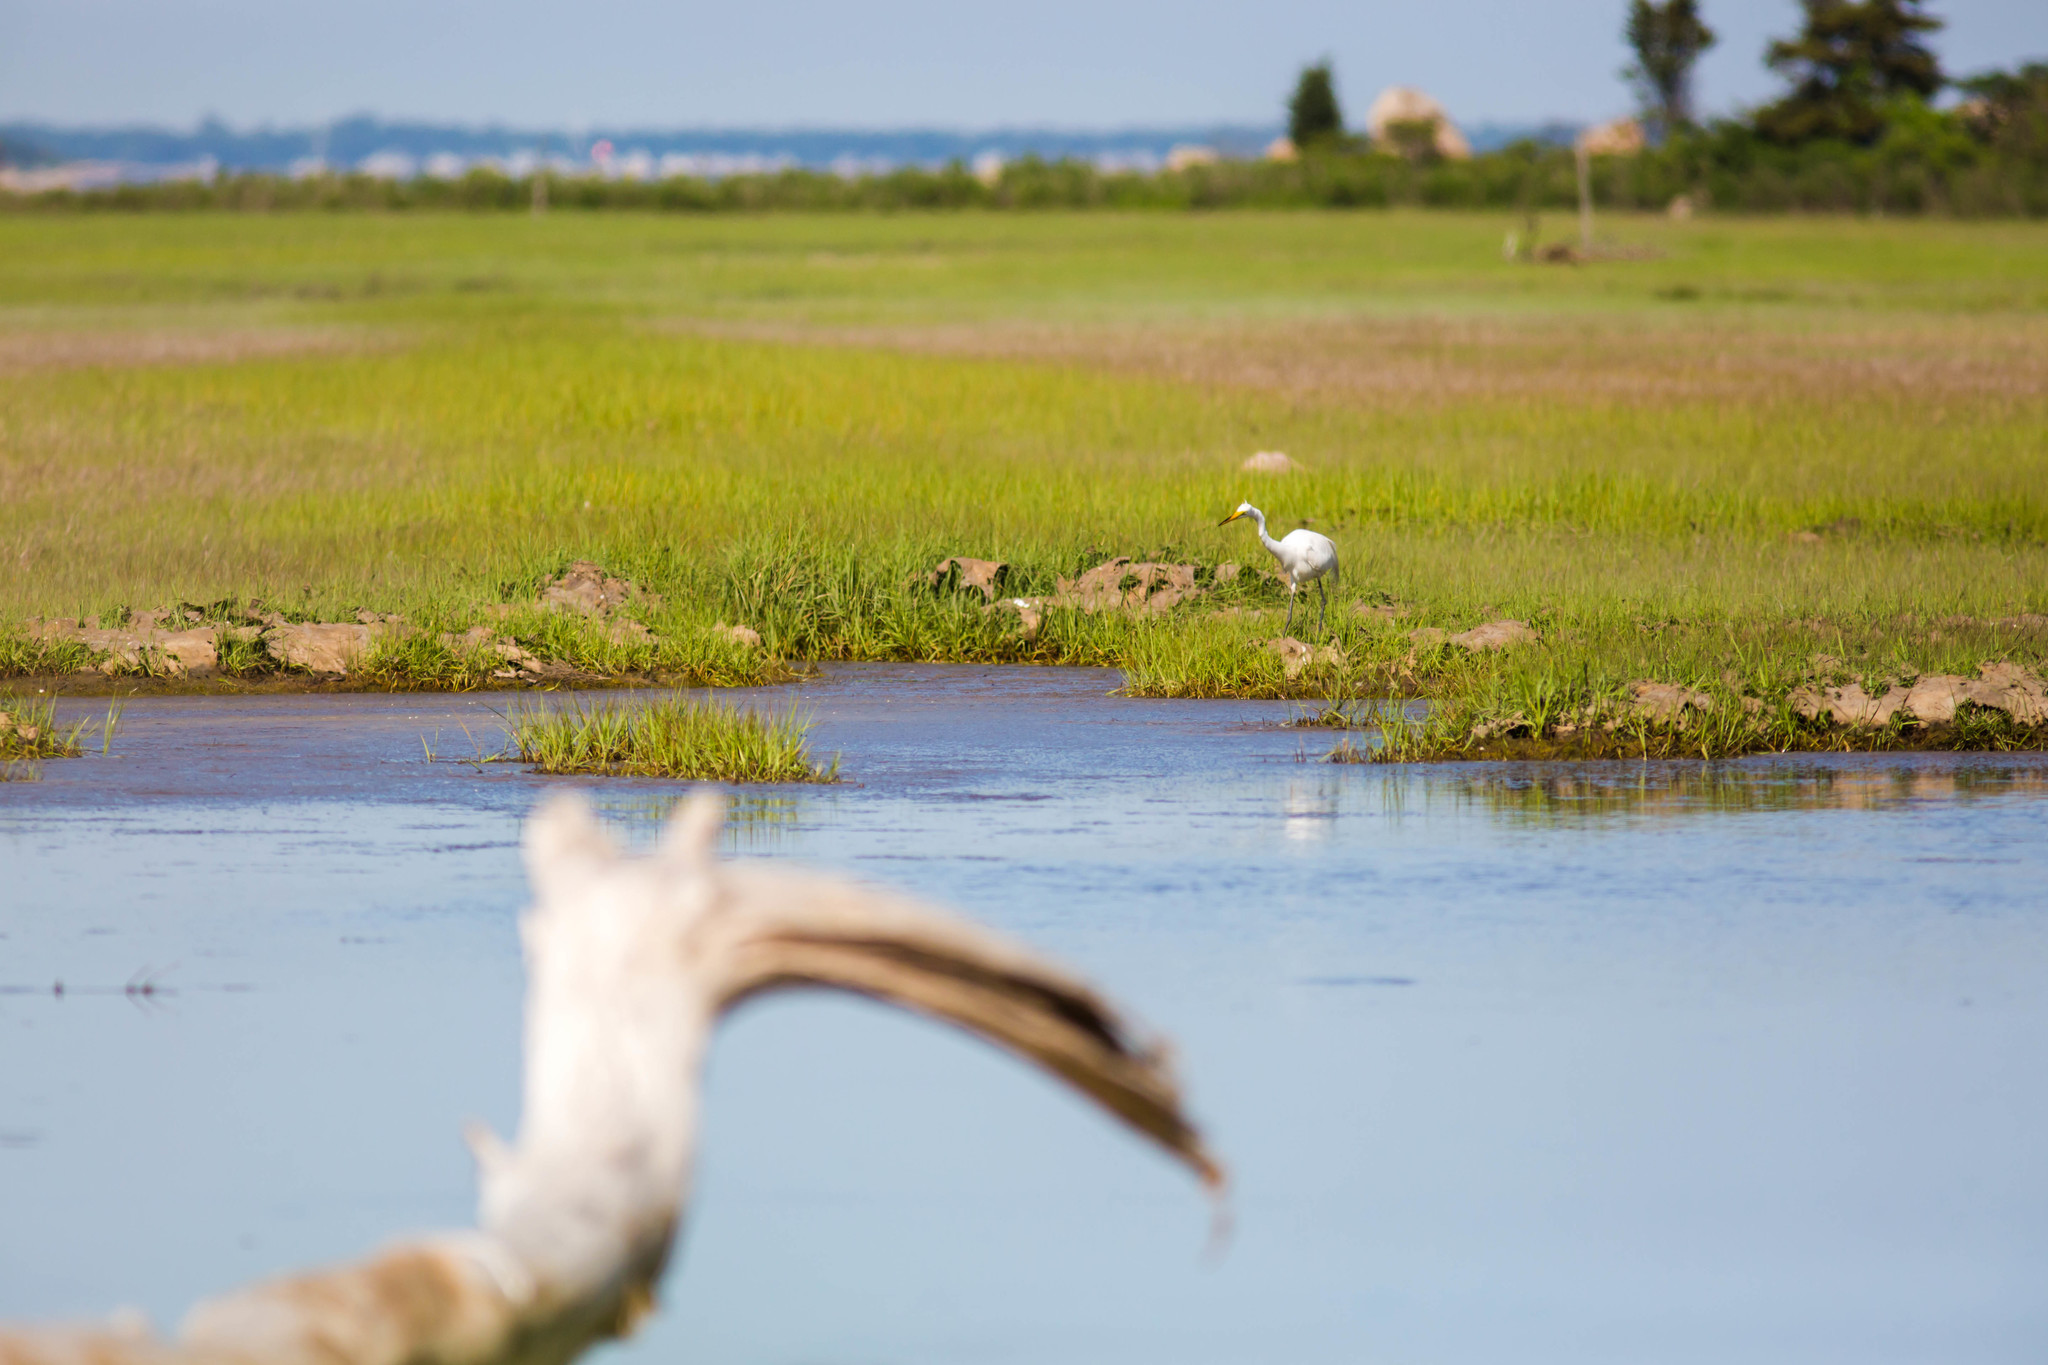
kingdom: Animalia
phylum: Chordata
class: Aves
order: Pelecaniformes
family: Ardeidae
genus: Ardea
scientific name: Ardea alba
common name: Great egret
